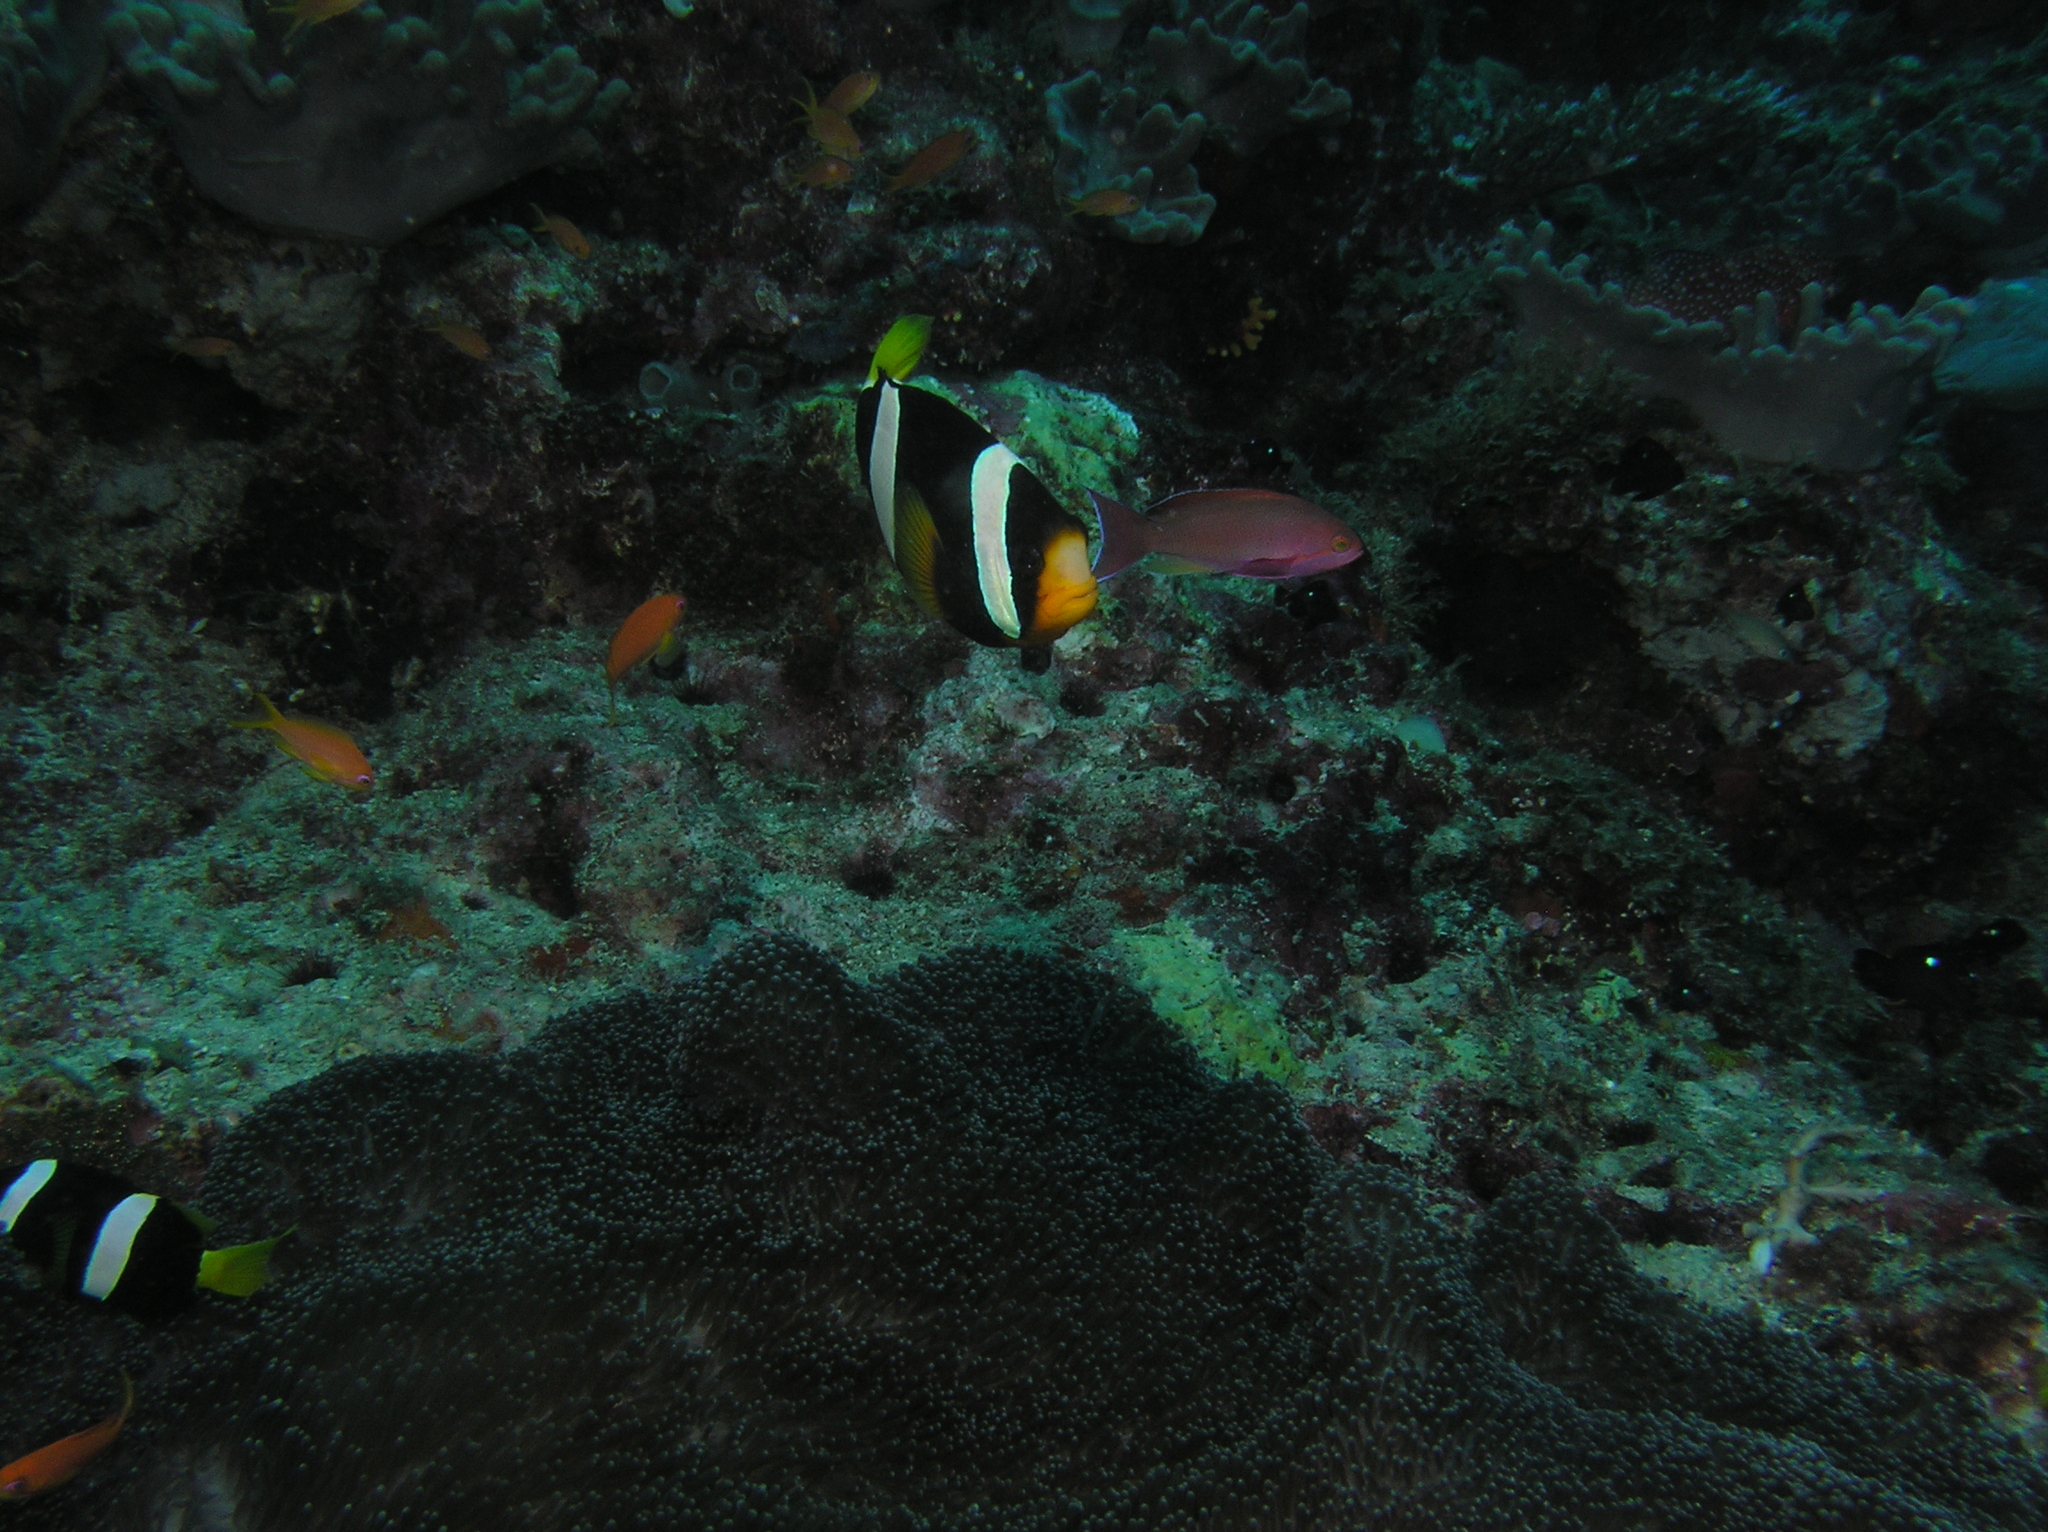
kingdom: Animalia
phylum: Chordata
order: Perciformes
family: Pomacentridae
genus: Amphiprion
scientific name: Amphiprion clarkii
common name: Clark's anemonefish
